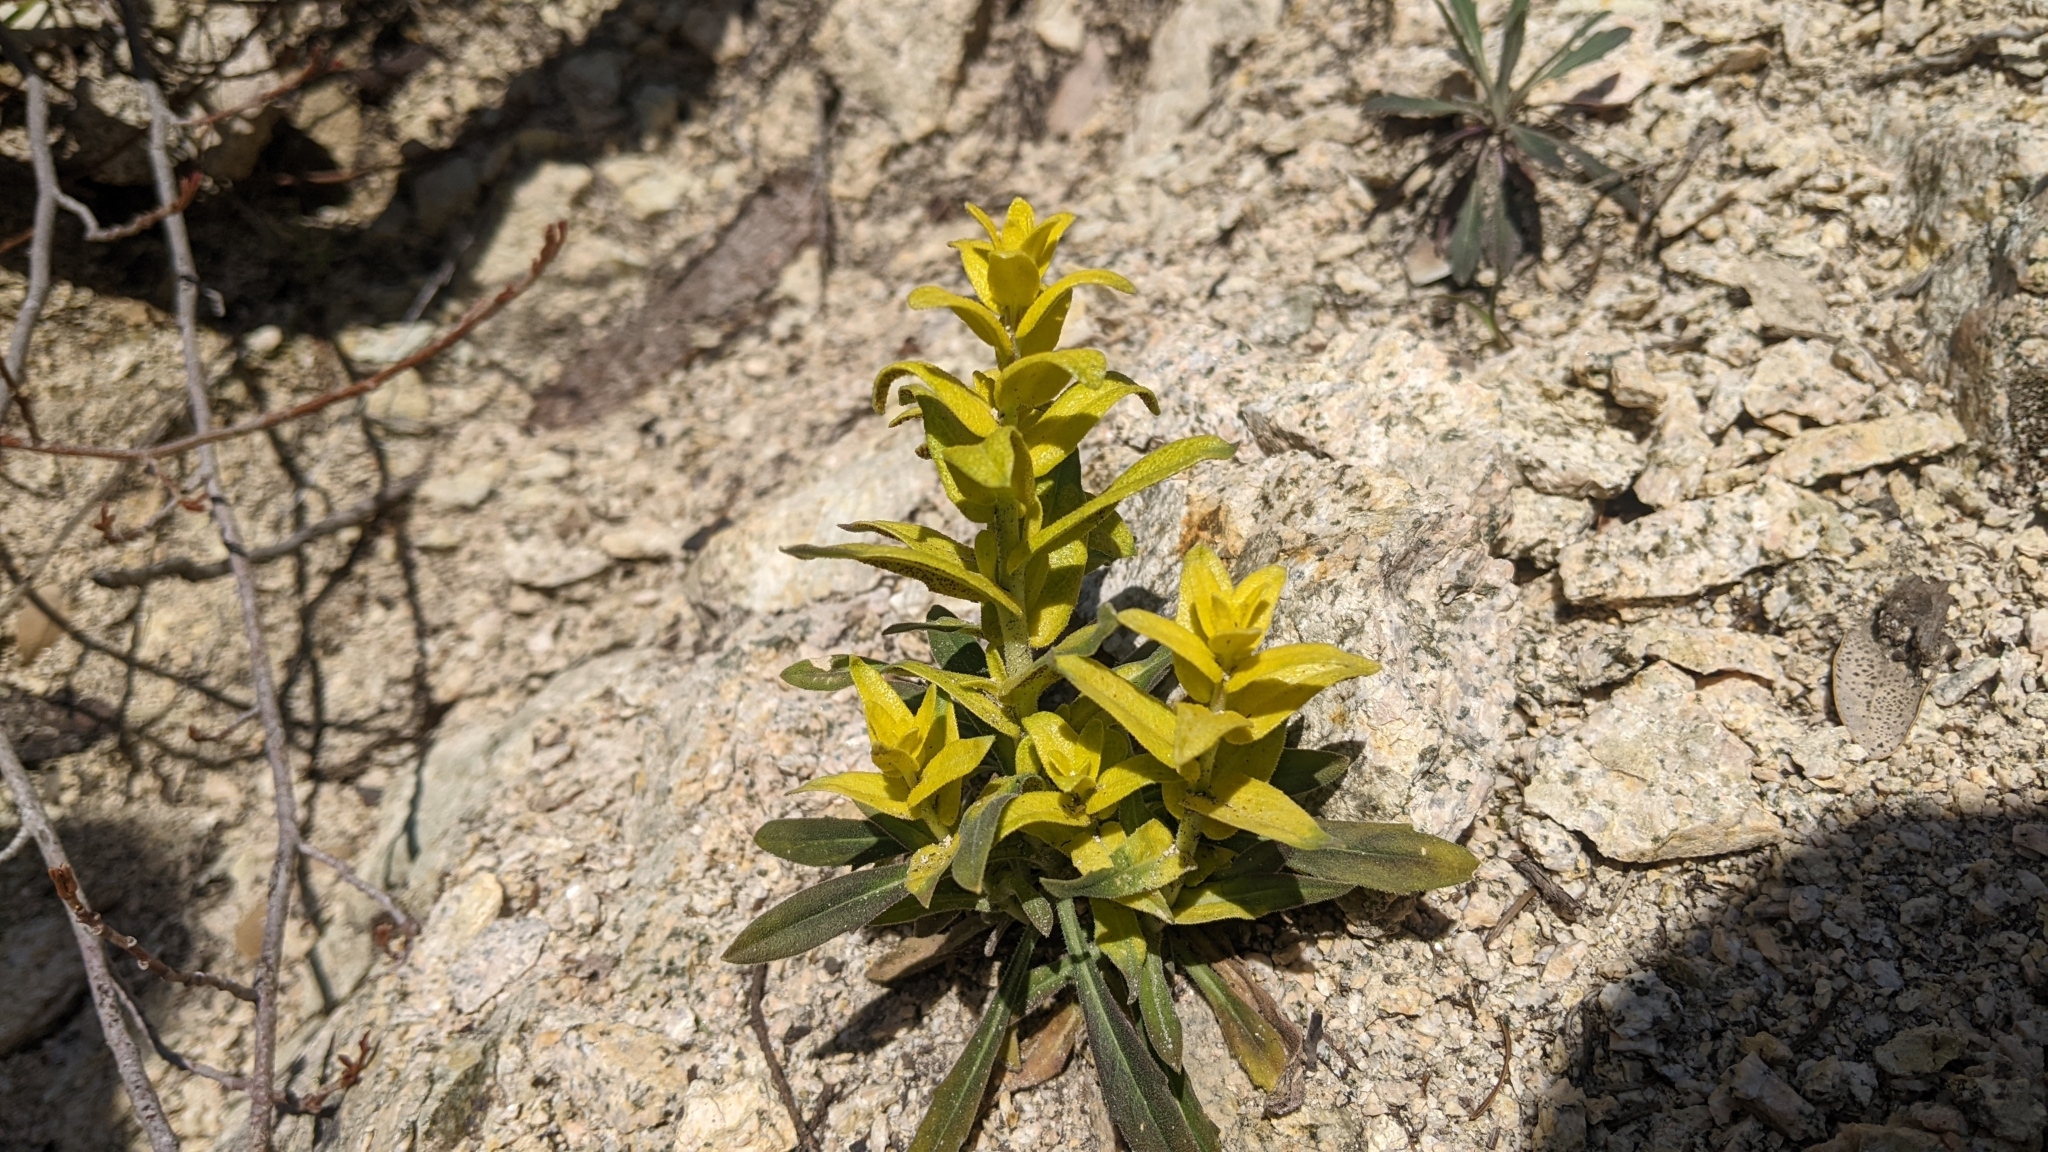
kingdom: Fungi
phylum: Basidiomycota
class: Pucciniomycetes
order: Pucciniales
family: Pucciniaceae
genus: Puccinia
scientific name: Puccinia monoica
